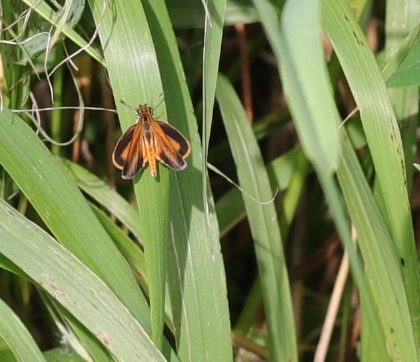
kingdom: Animalia
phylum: Arthropoda
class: Insecta
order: Lepidoptera
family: Hesperiidae
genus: Ancyloxypha
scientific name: Ancyloxypha numitor
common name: Least skipper
